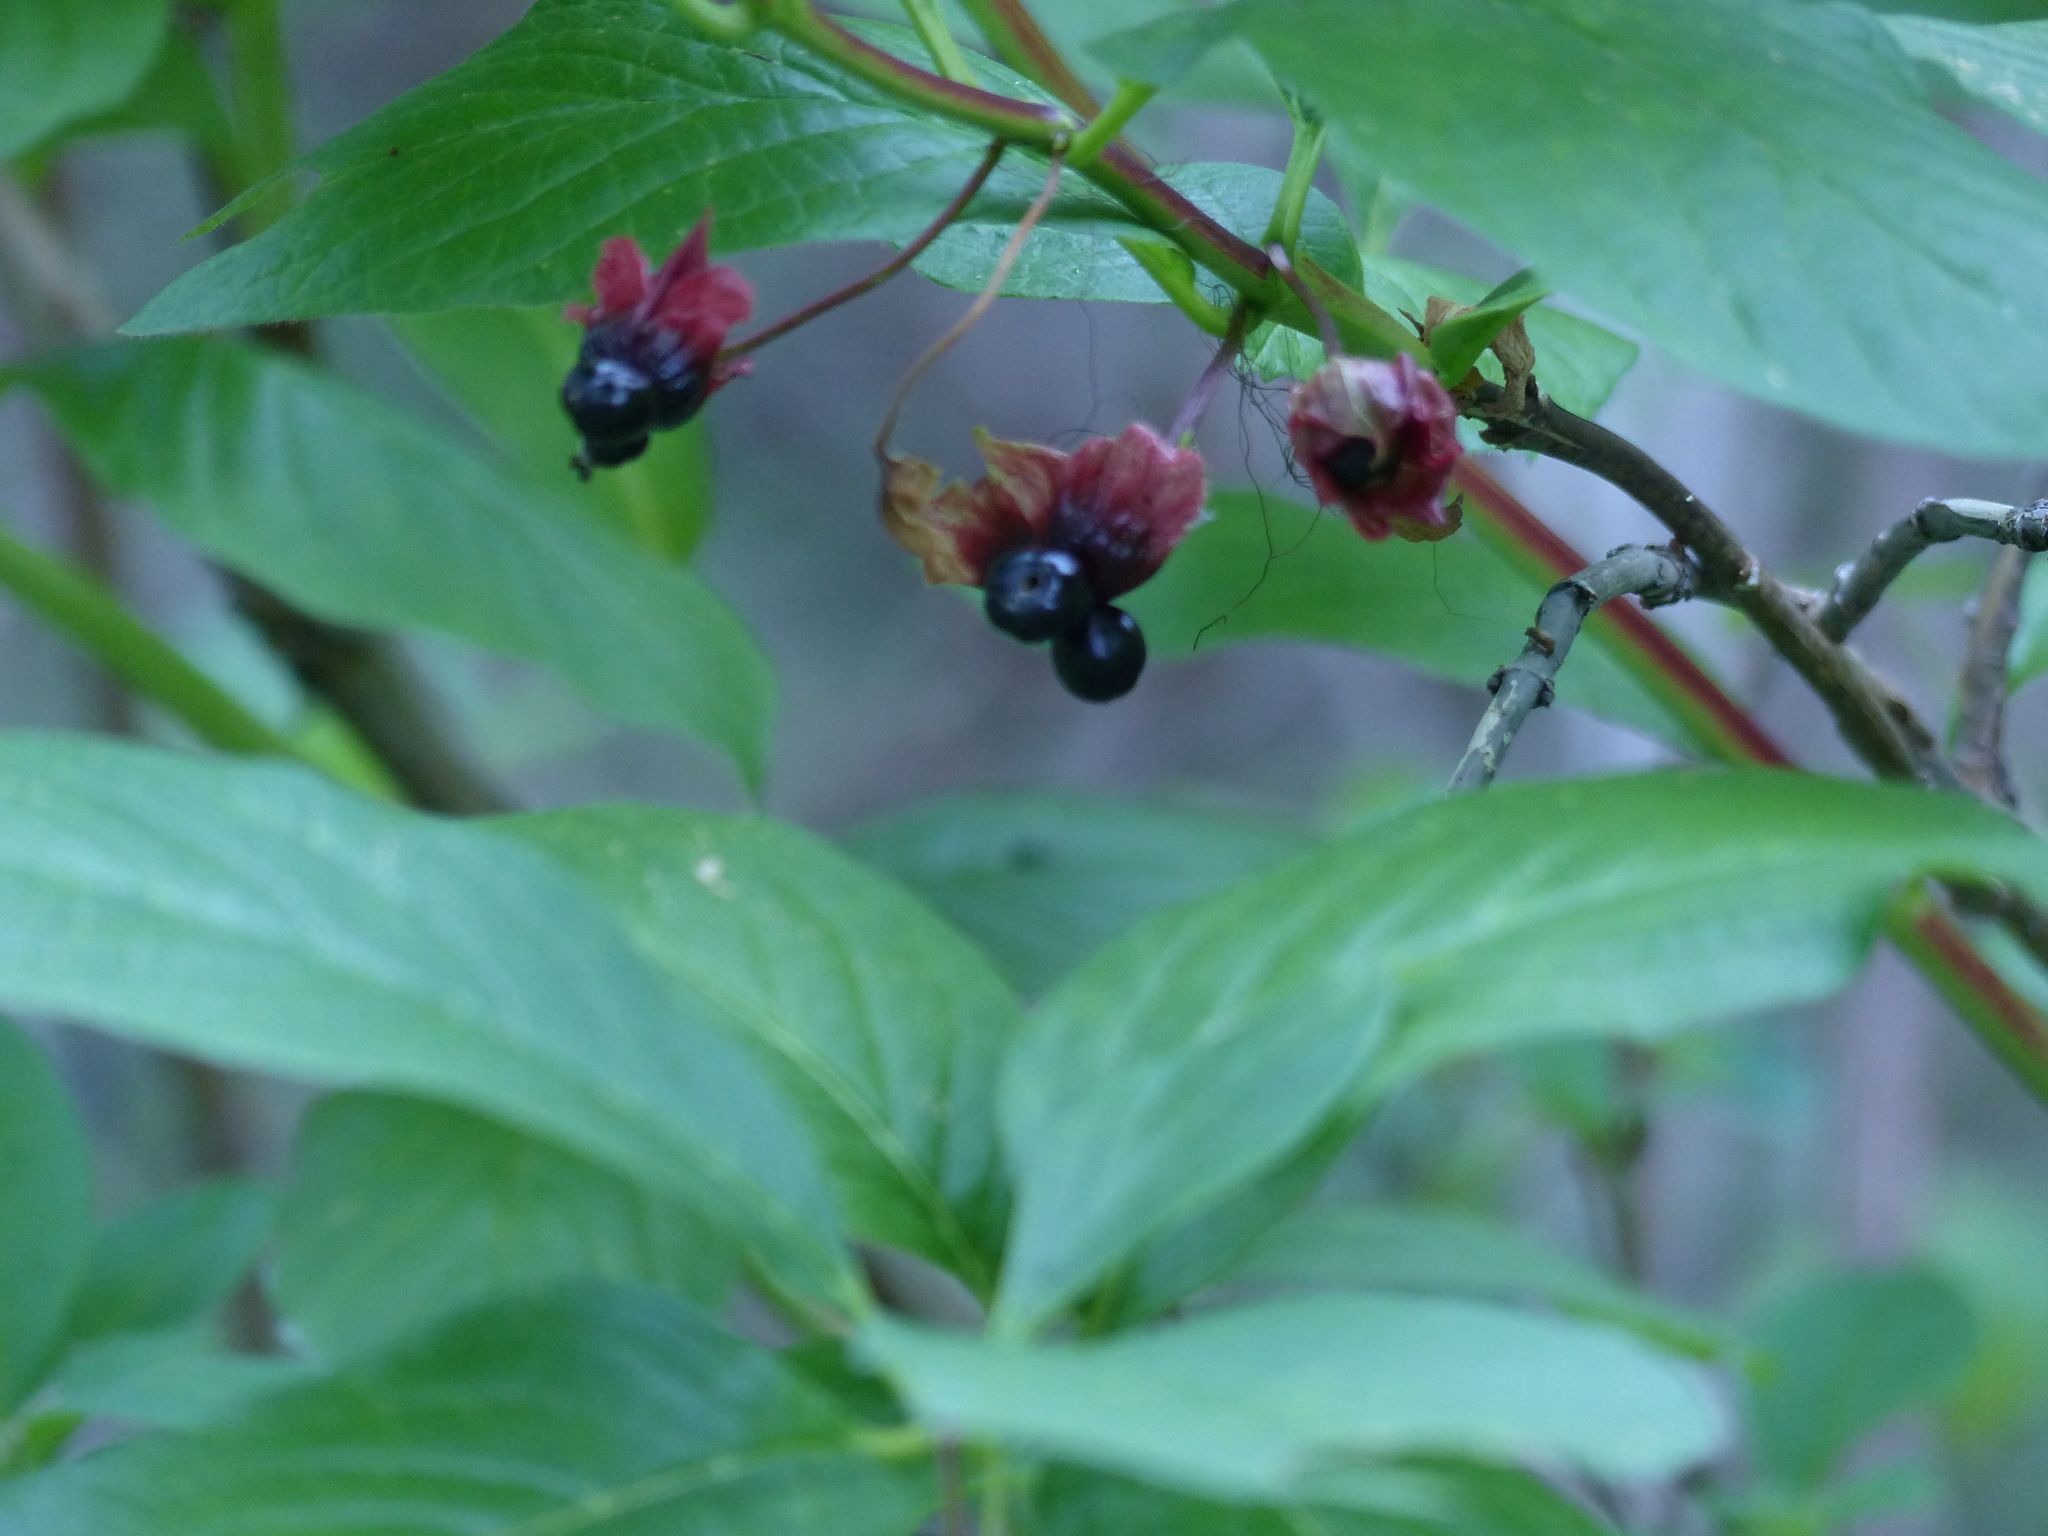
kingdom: Plantae
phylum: Tracheophyta
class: Magnoliopsida
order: Dipsacales
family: Caprifoliaceae
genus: Lonicera
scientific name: Lonicera involucrata
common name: Californian honeysuckle
